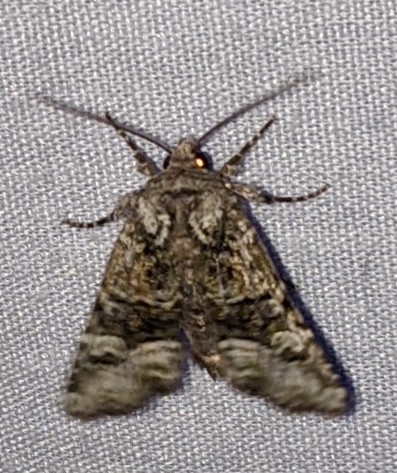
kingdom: Animalia
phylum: Arthropoda
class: Insecta
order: Lepidoptera
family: Noctuidae
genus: Lacinipolia
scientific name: Lacinipolia olivacea
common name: Olive arches moth
